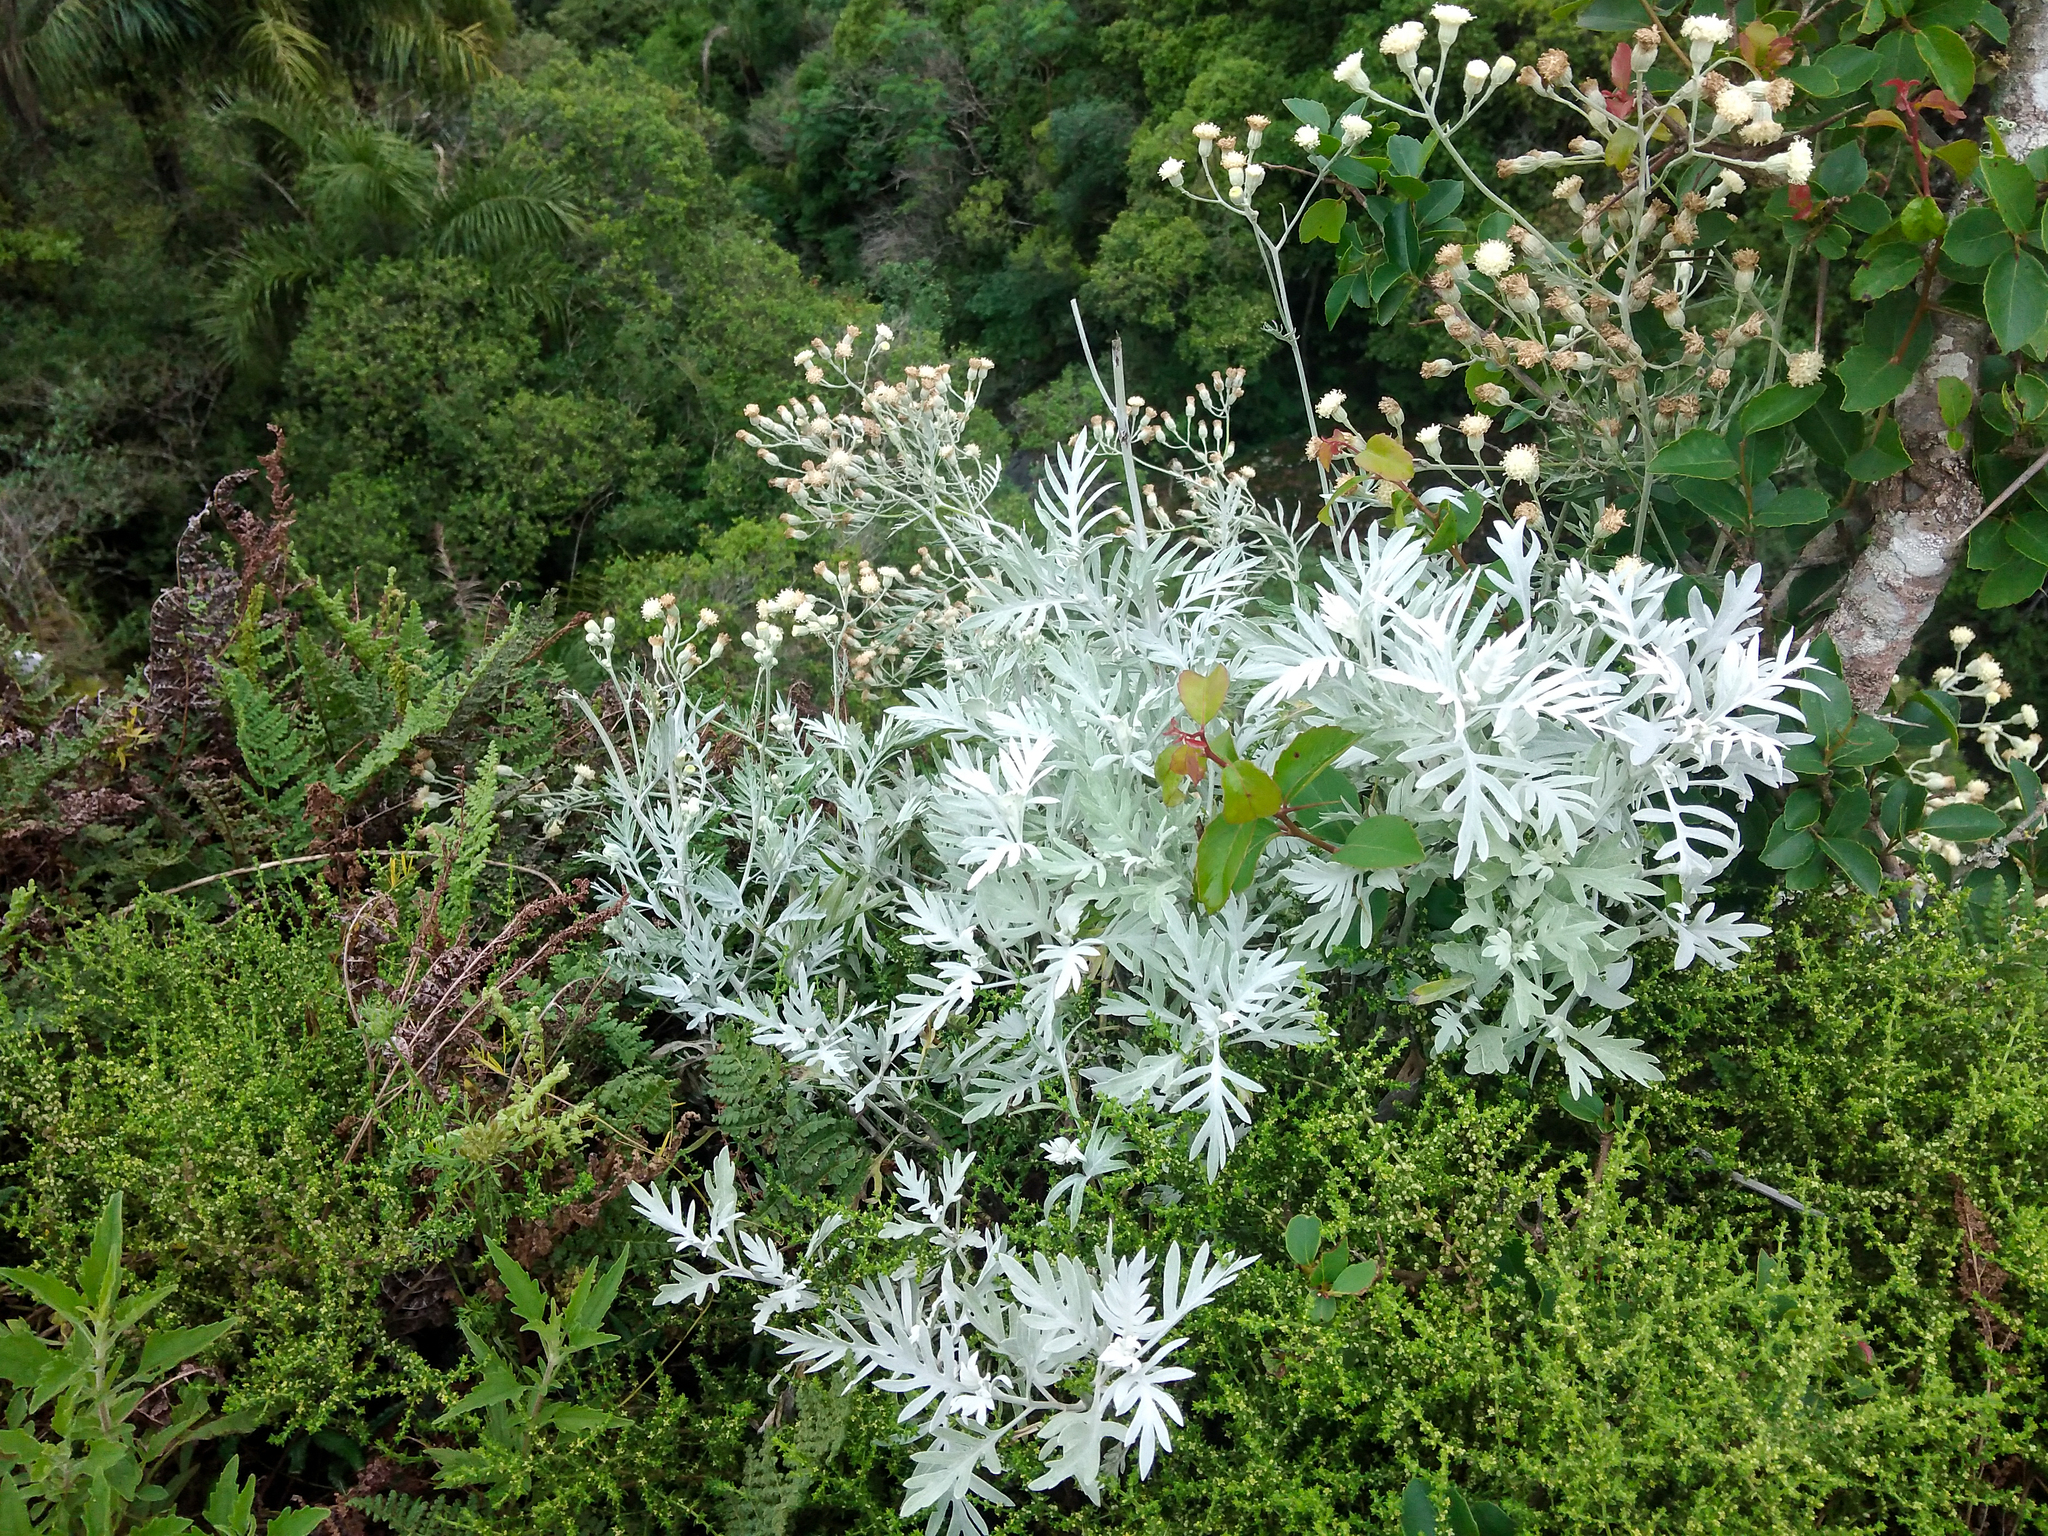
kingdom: Plantae
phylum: Tracheophyta
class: Magnoliopsida
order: Asterales
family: Asteraceae
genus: Senecio
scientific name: Senecio vira-vira
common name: Dusty-miller
